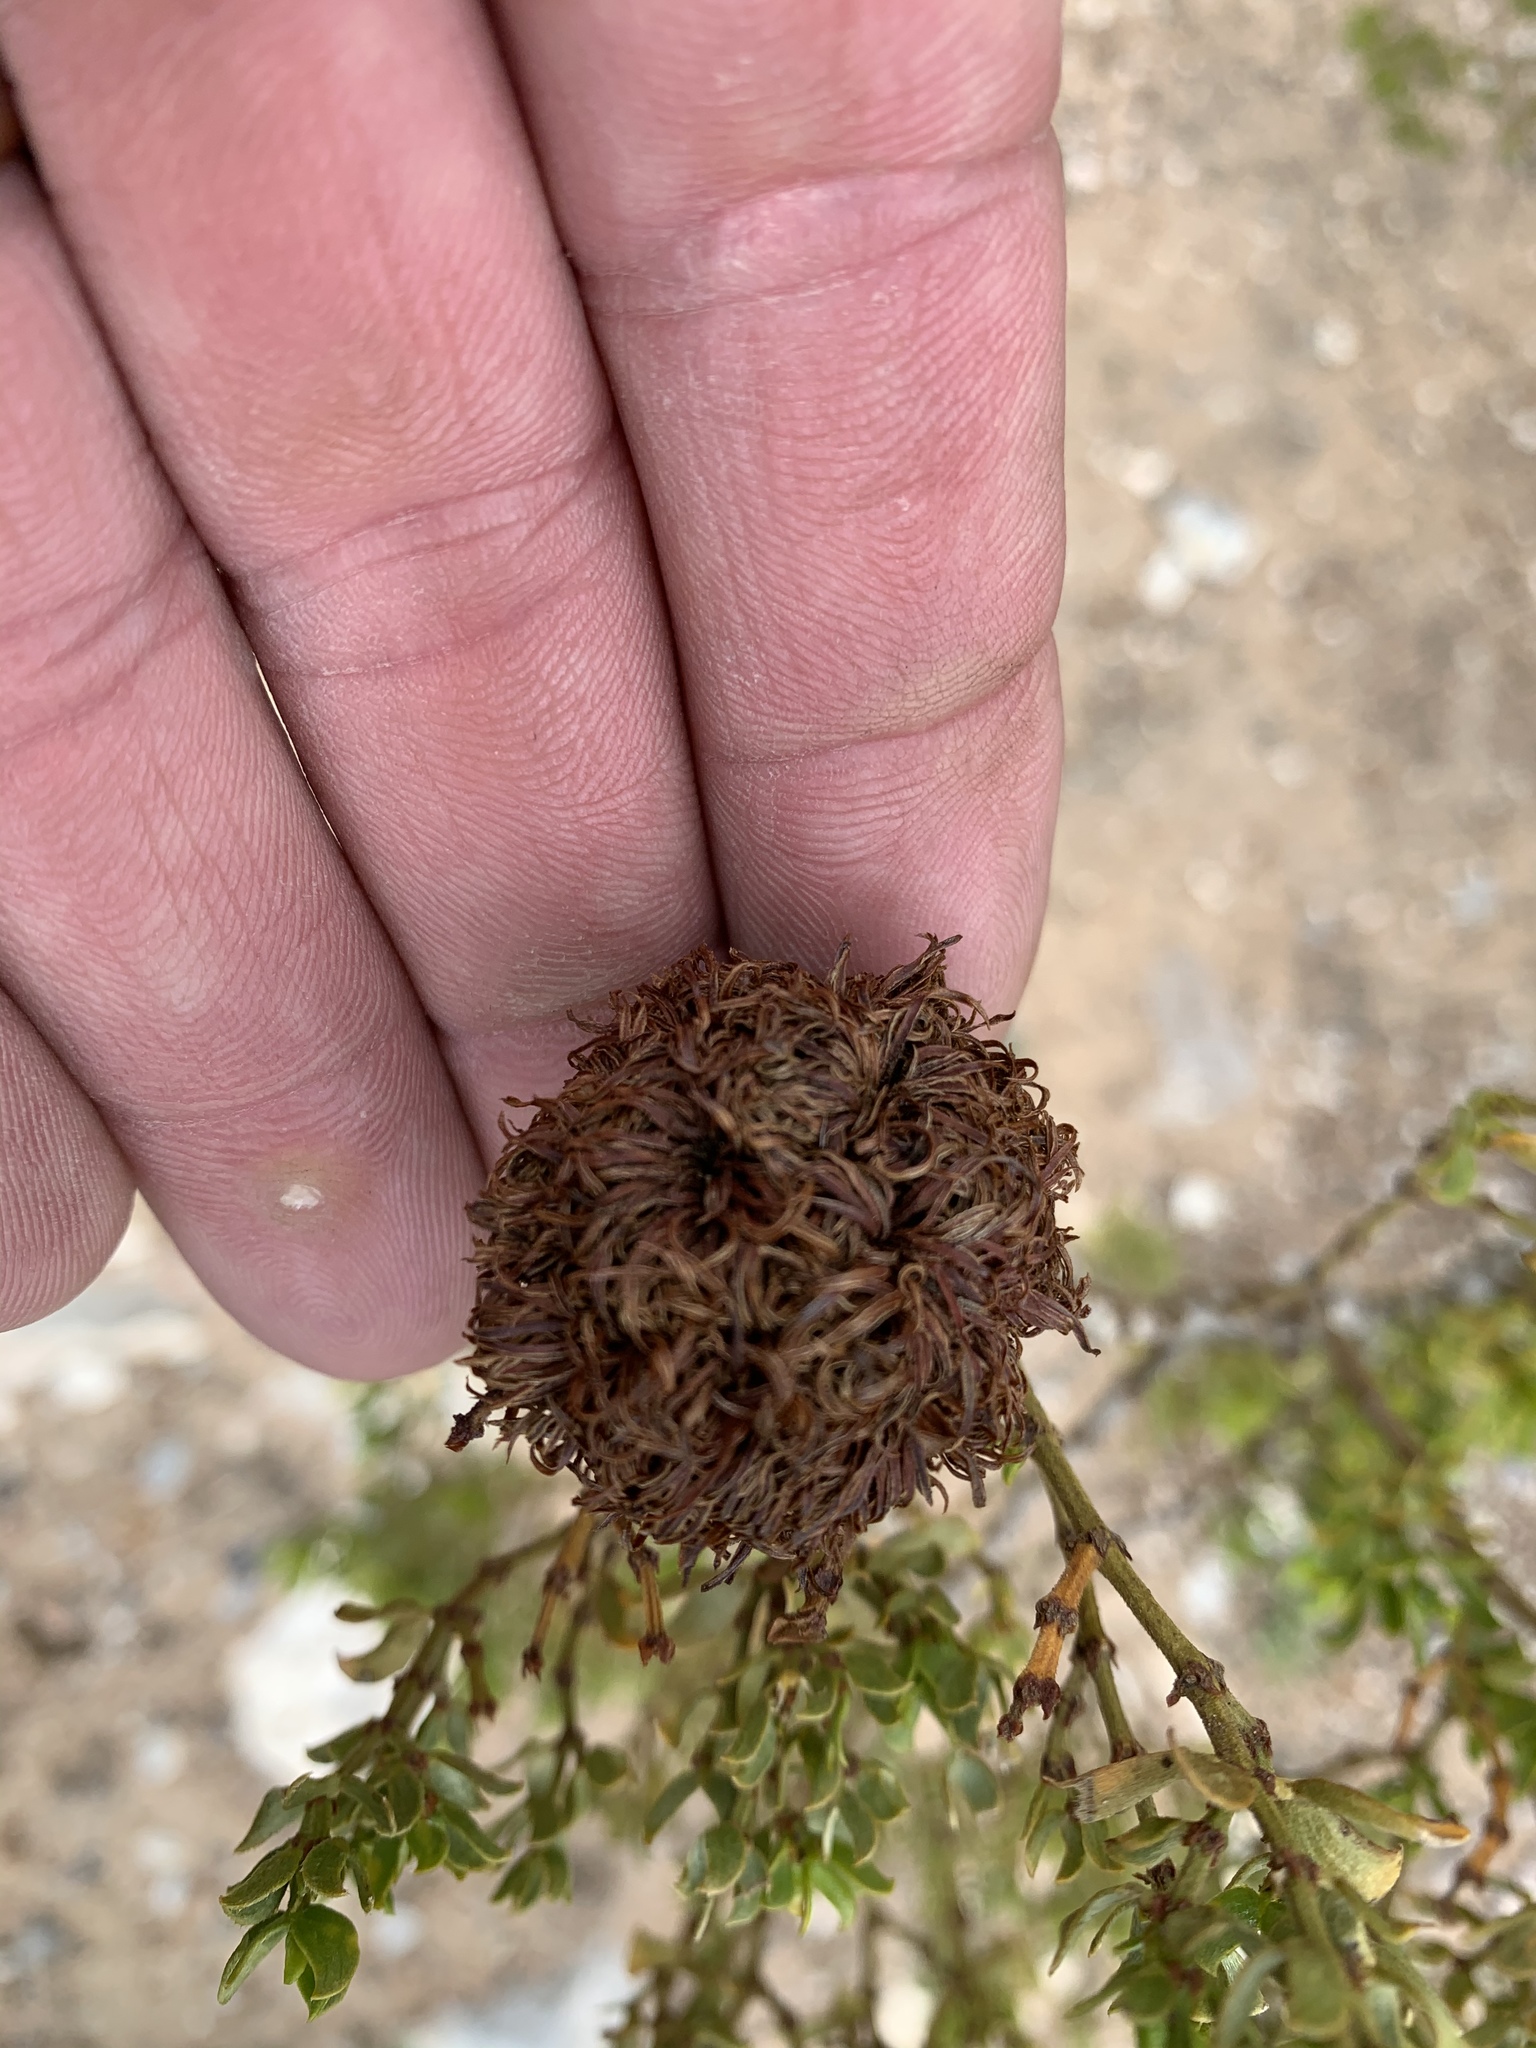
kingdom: Animalia
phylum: Arthropoda
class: Insecta
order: Diptera
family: Cecidomyiidae
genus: Asphondylia
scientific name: Asphondylia auripila
